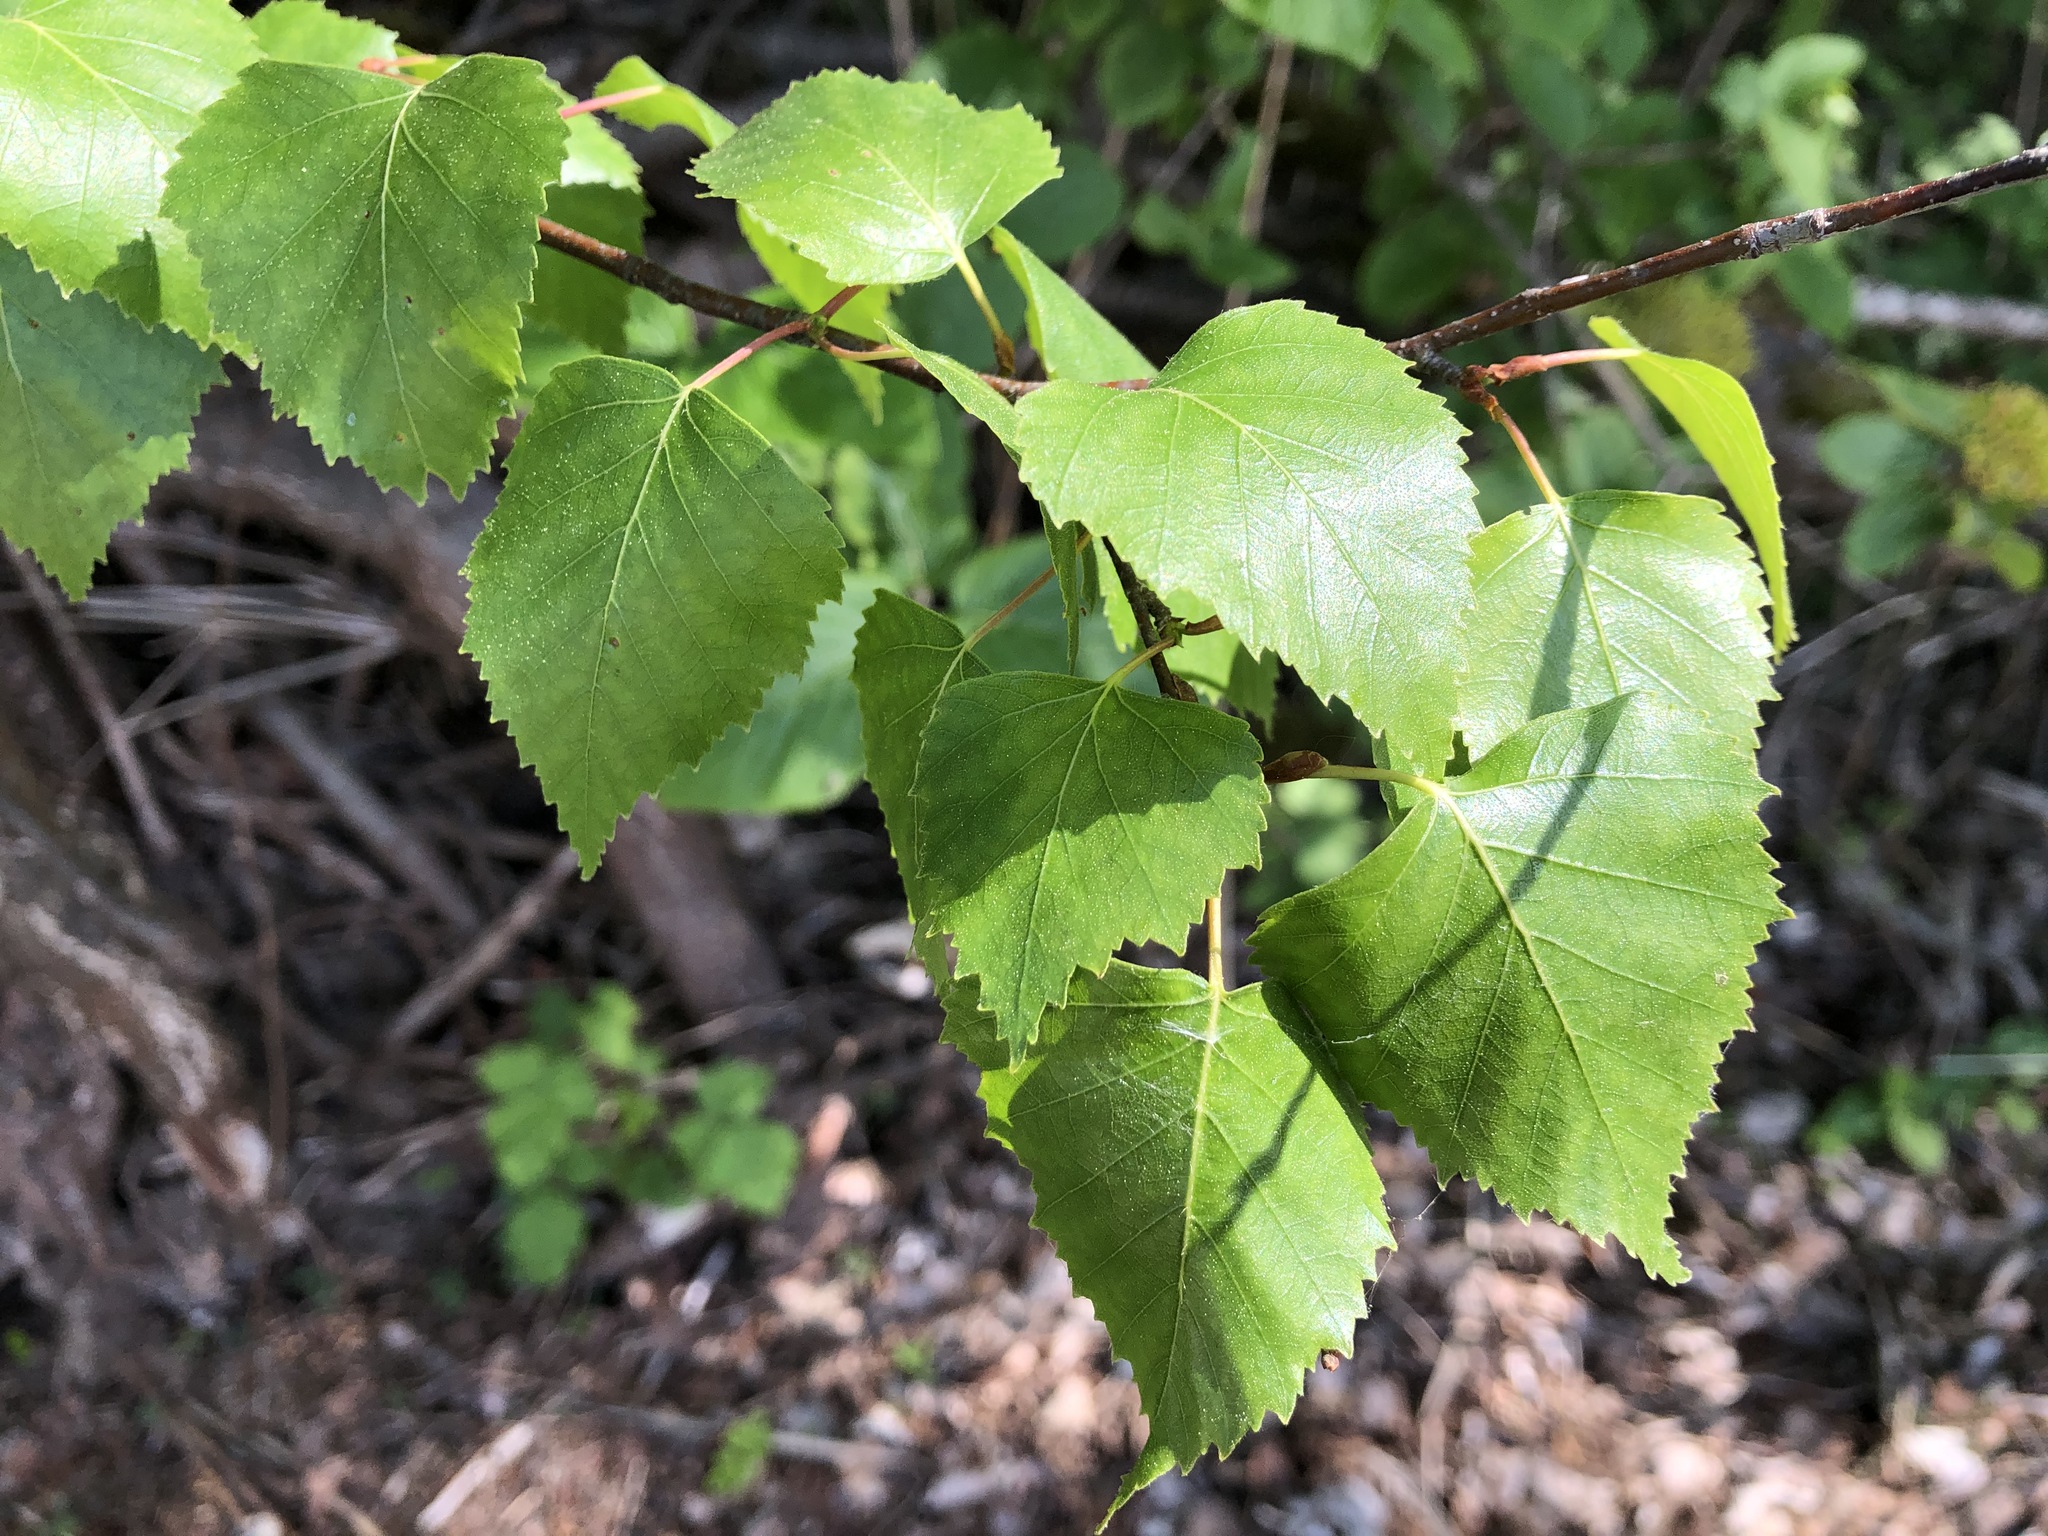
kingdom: Plantae
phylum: Tracheophyta
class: Magnoliopsida
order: Fagales
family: Betulaceae
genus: Betula
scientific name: Betula pendula
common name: Silver birch
